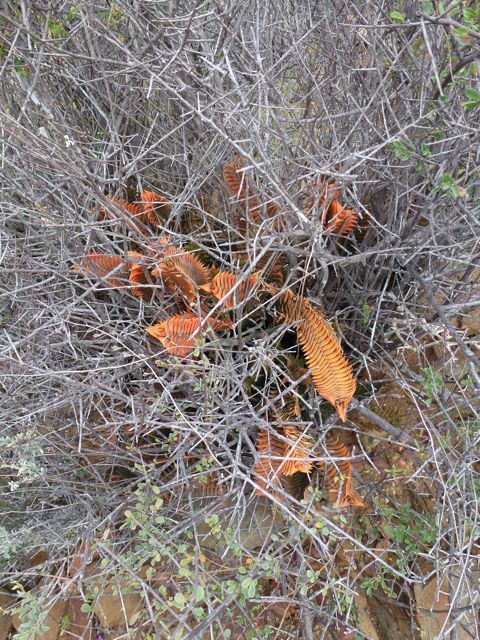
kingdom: Plantae
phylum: Tracheophyta
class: Liliopsida
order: Asparagales
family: Asphodelaceae
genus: Haworthiopsis
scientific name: Haworthiopsis viscosa
